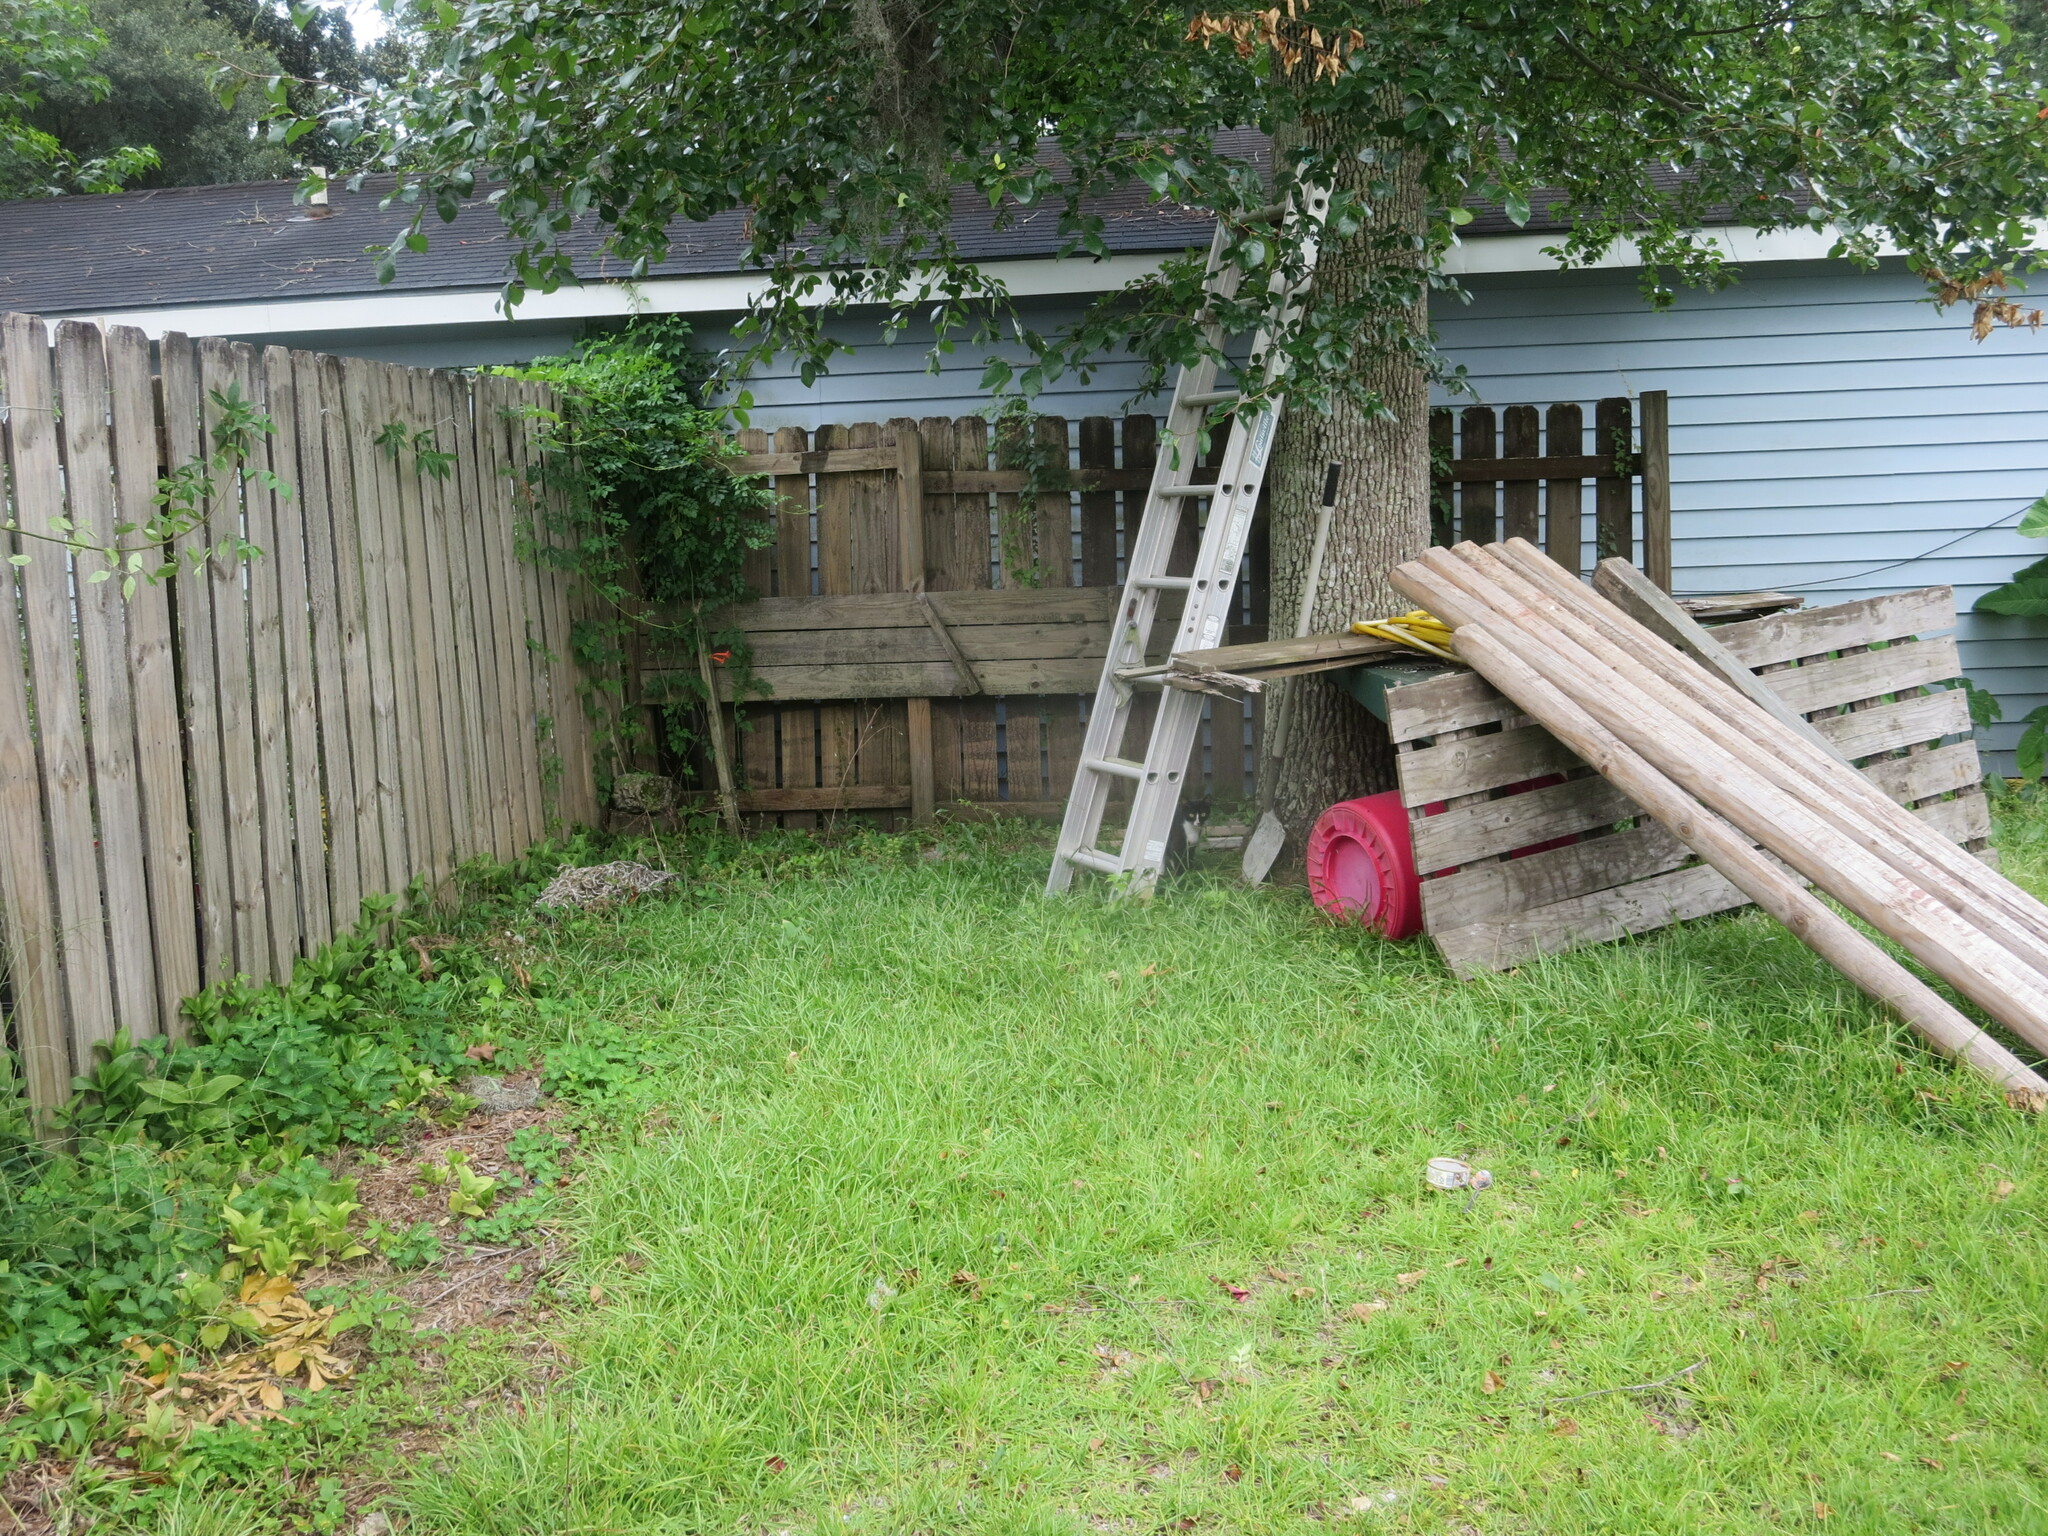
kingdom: Animalia
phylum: Chordata
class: Mammalia
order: Carnivora
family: Felidae
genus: Felis
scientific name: Felis catus
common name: Domestic cat
